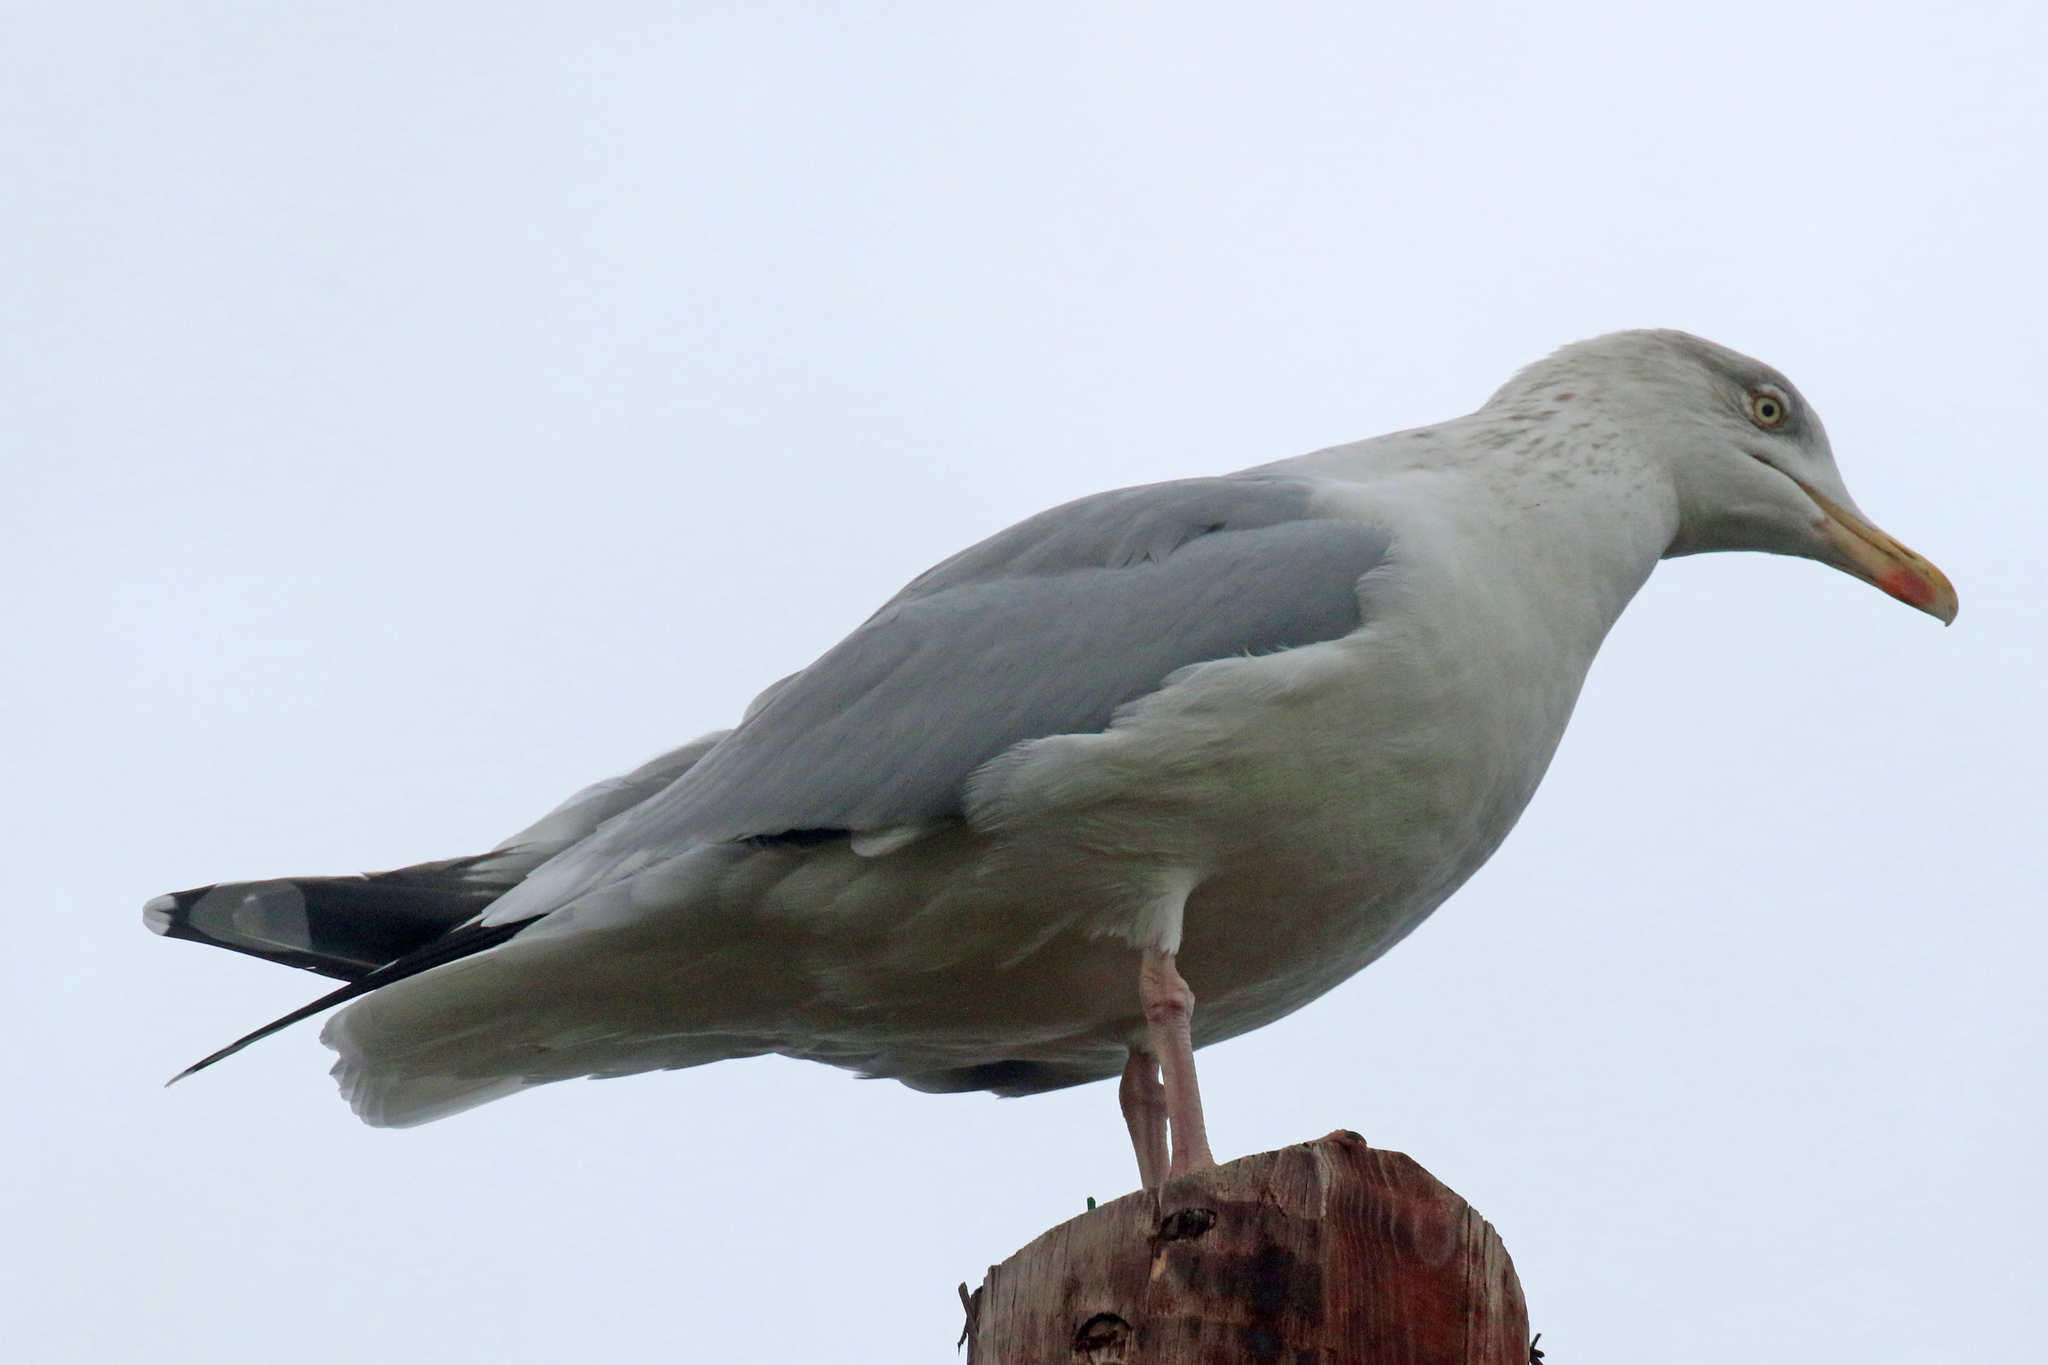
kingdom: Animalia
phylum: Chordata
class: Aves
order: Charadriiformes
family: Laridae
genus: Larus
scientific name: Larus argentatus
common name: Herring gull
